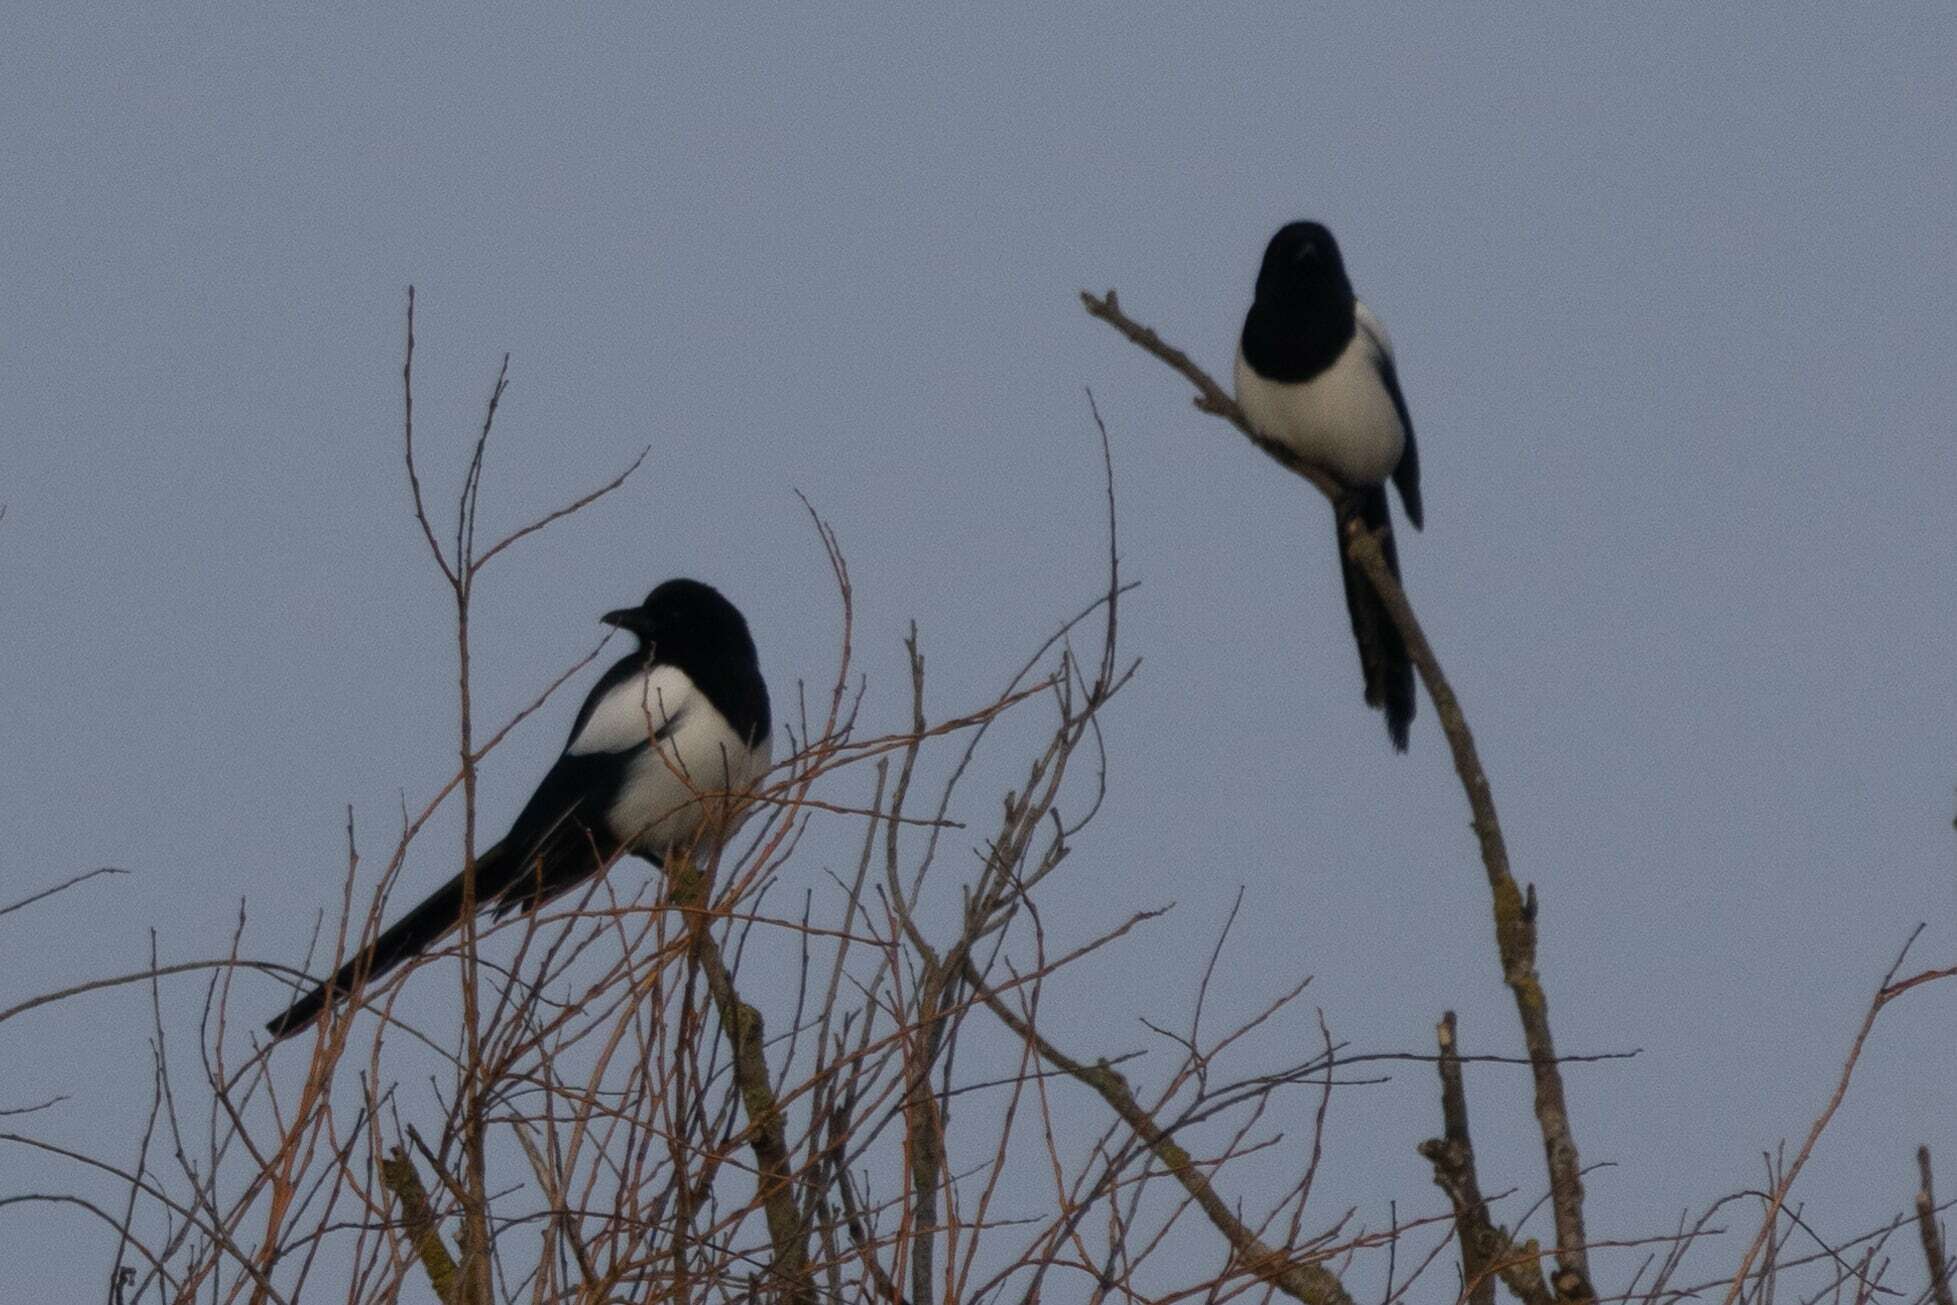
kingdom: Animalia
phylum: Chordata
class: Aves
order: Passeriformes
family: Corvidae
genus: Pica
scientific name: Pica pica
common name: Eurasian magpie
